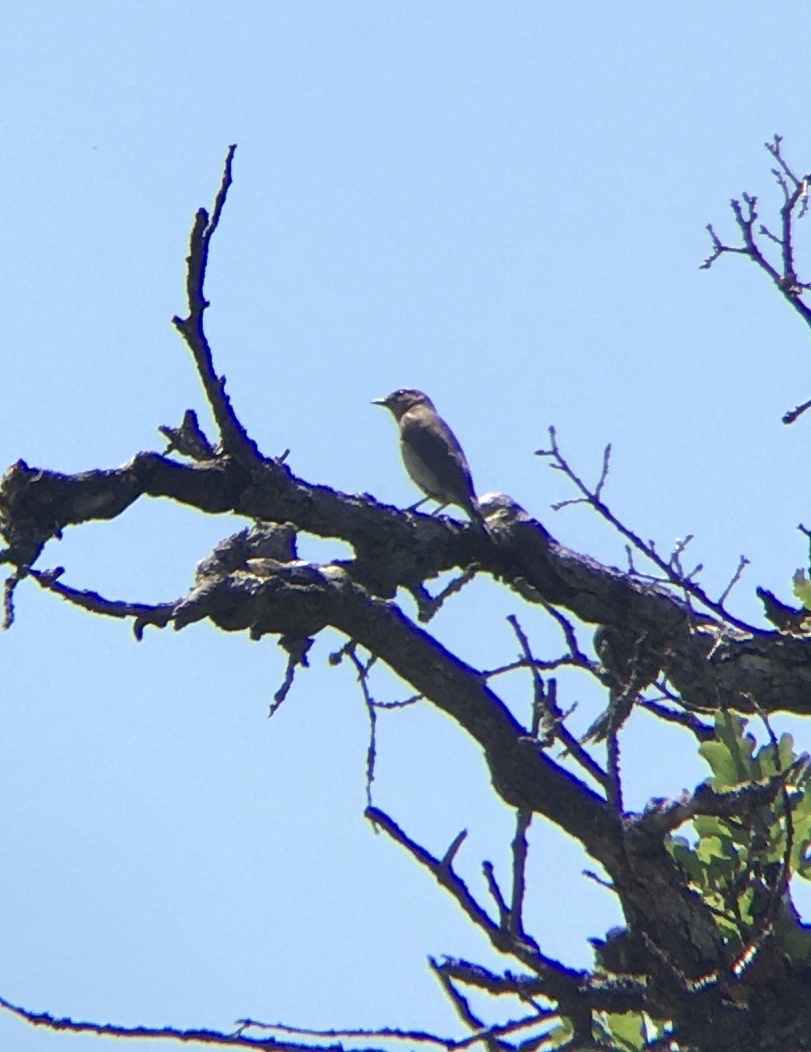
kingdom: Animalia
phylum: Chordata
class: Aves
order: Passeriformes
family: Turdidae
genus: Sialia
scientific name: Sialia mexicana
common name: Western bluebird
